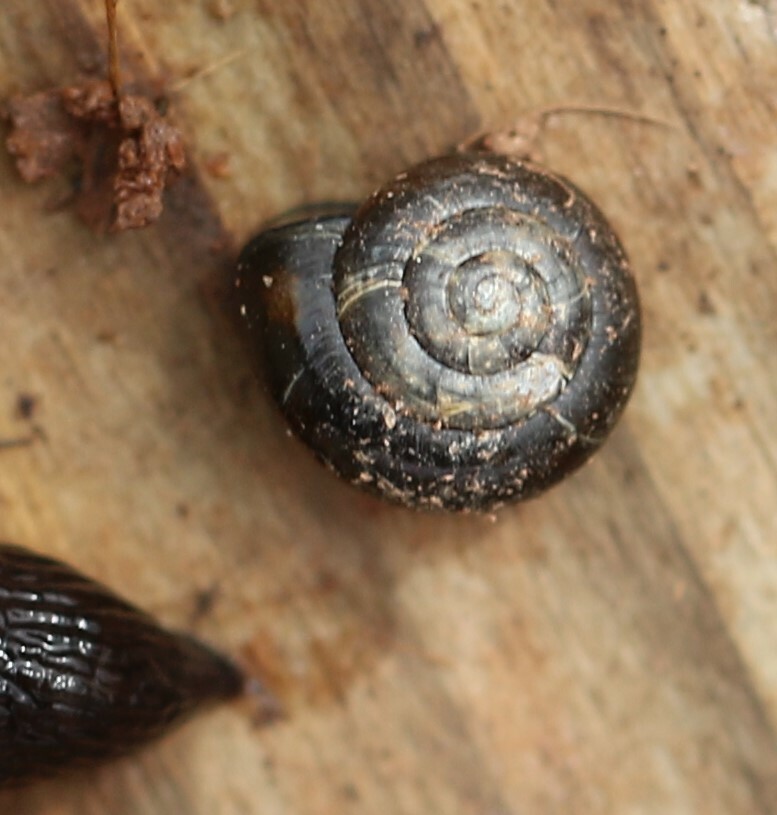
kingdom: Animalia
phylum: Mollusca
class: Gastropoda
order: Stylommatophora
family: Gastrodontidae
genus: Zonitoides
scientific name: Zonitoides nitidus
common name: Shiny glass snail
